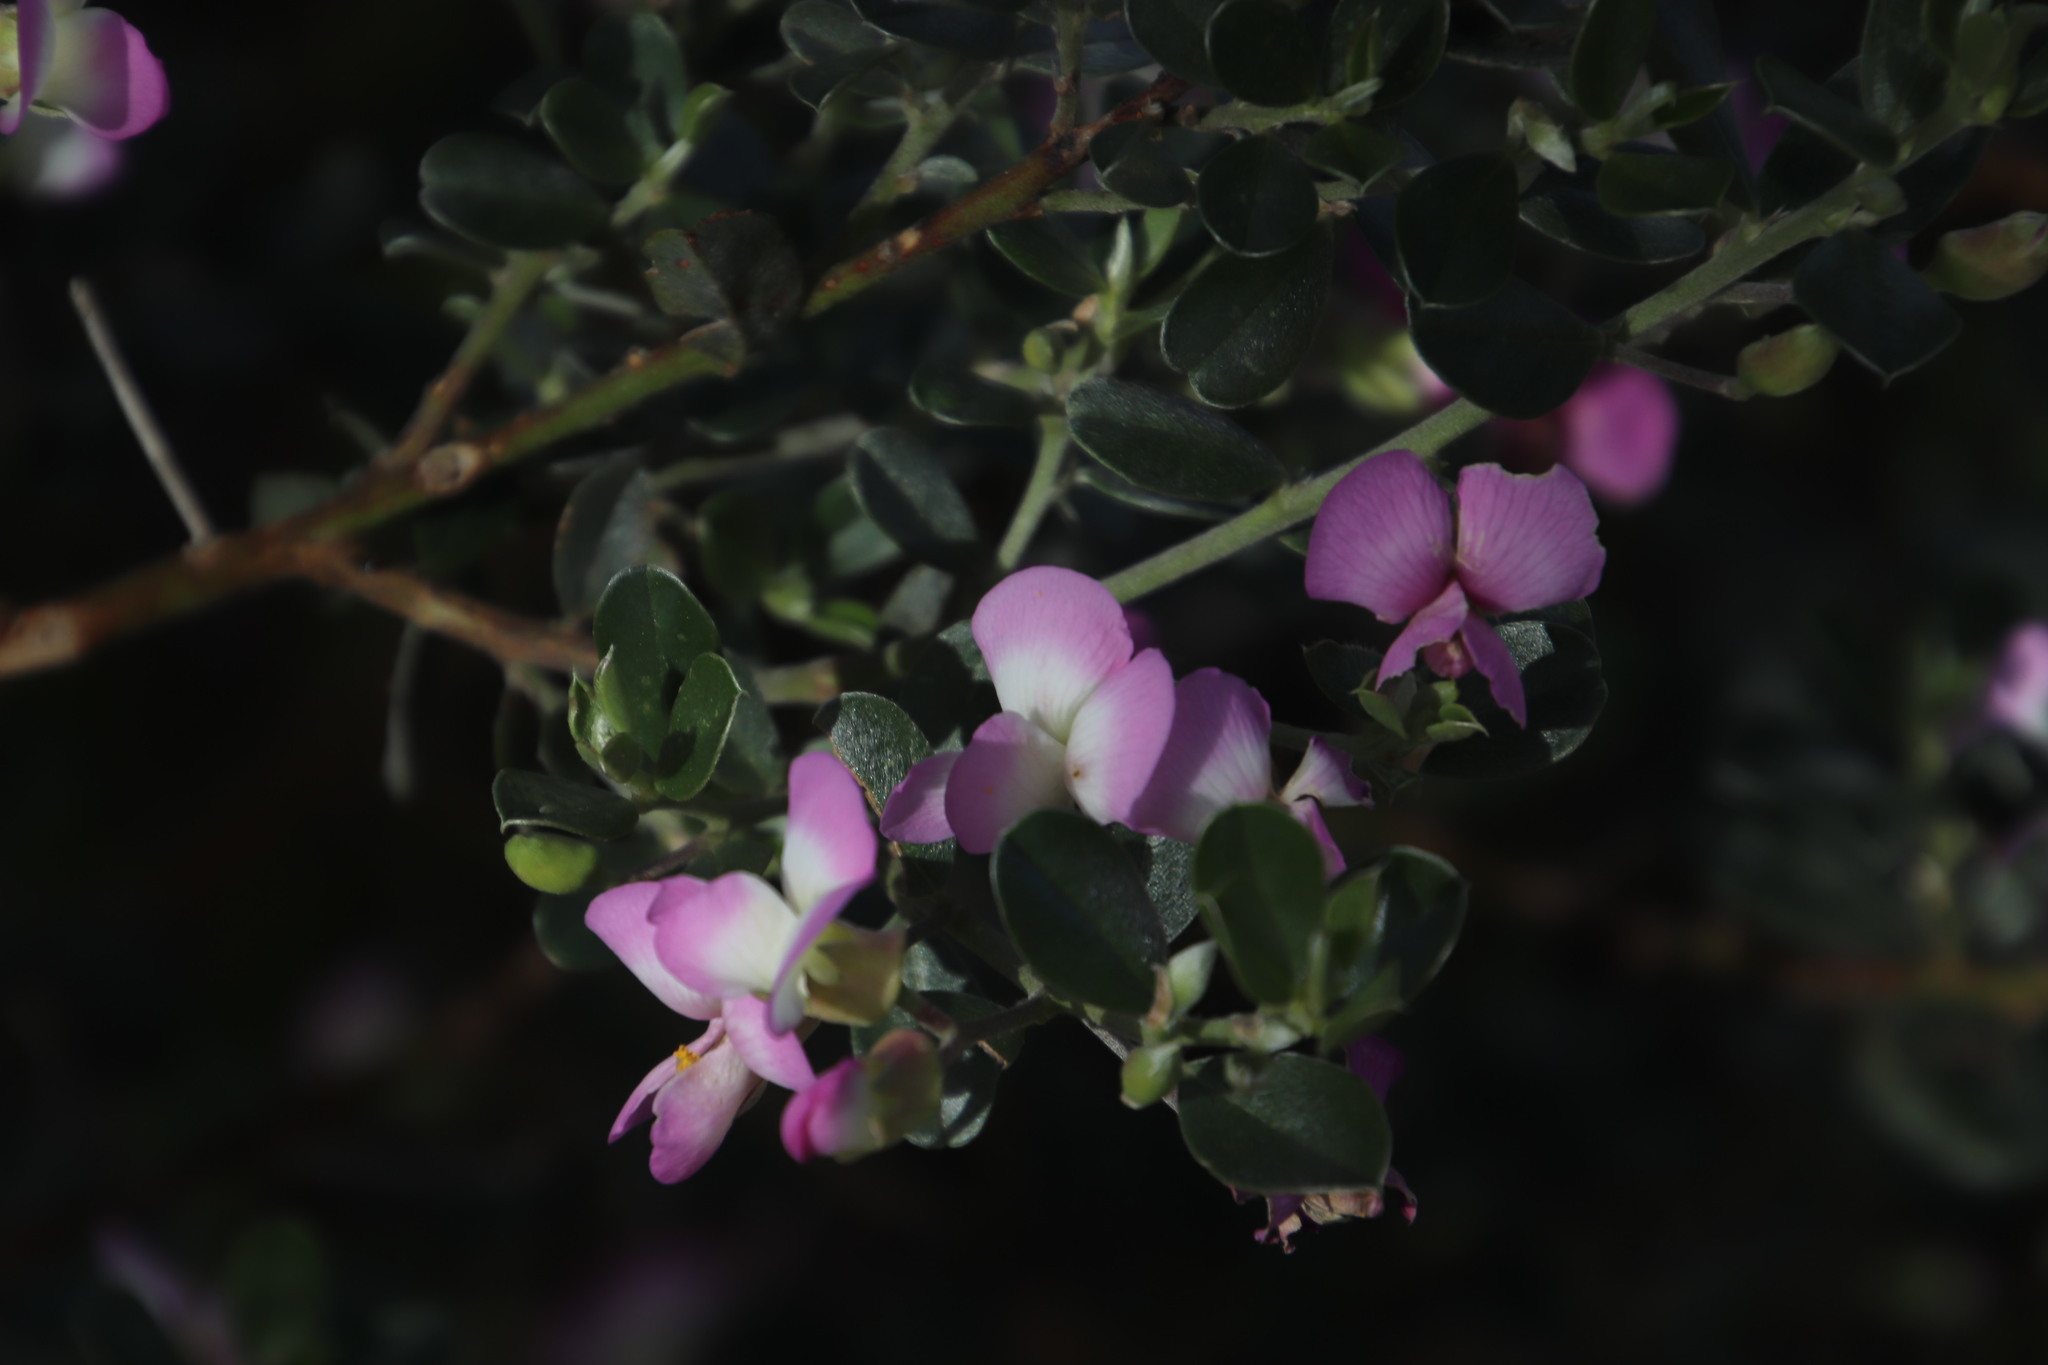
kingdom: Plantae
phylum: Tracheophyta
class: Magnoliopsida
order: Fabales
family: Fabaceae
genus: Podalyria
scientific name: Podalyria myrtillifolia
